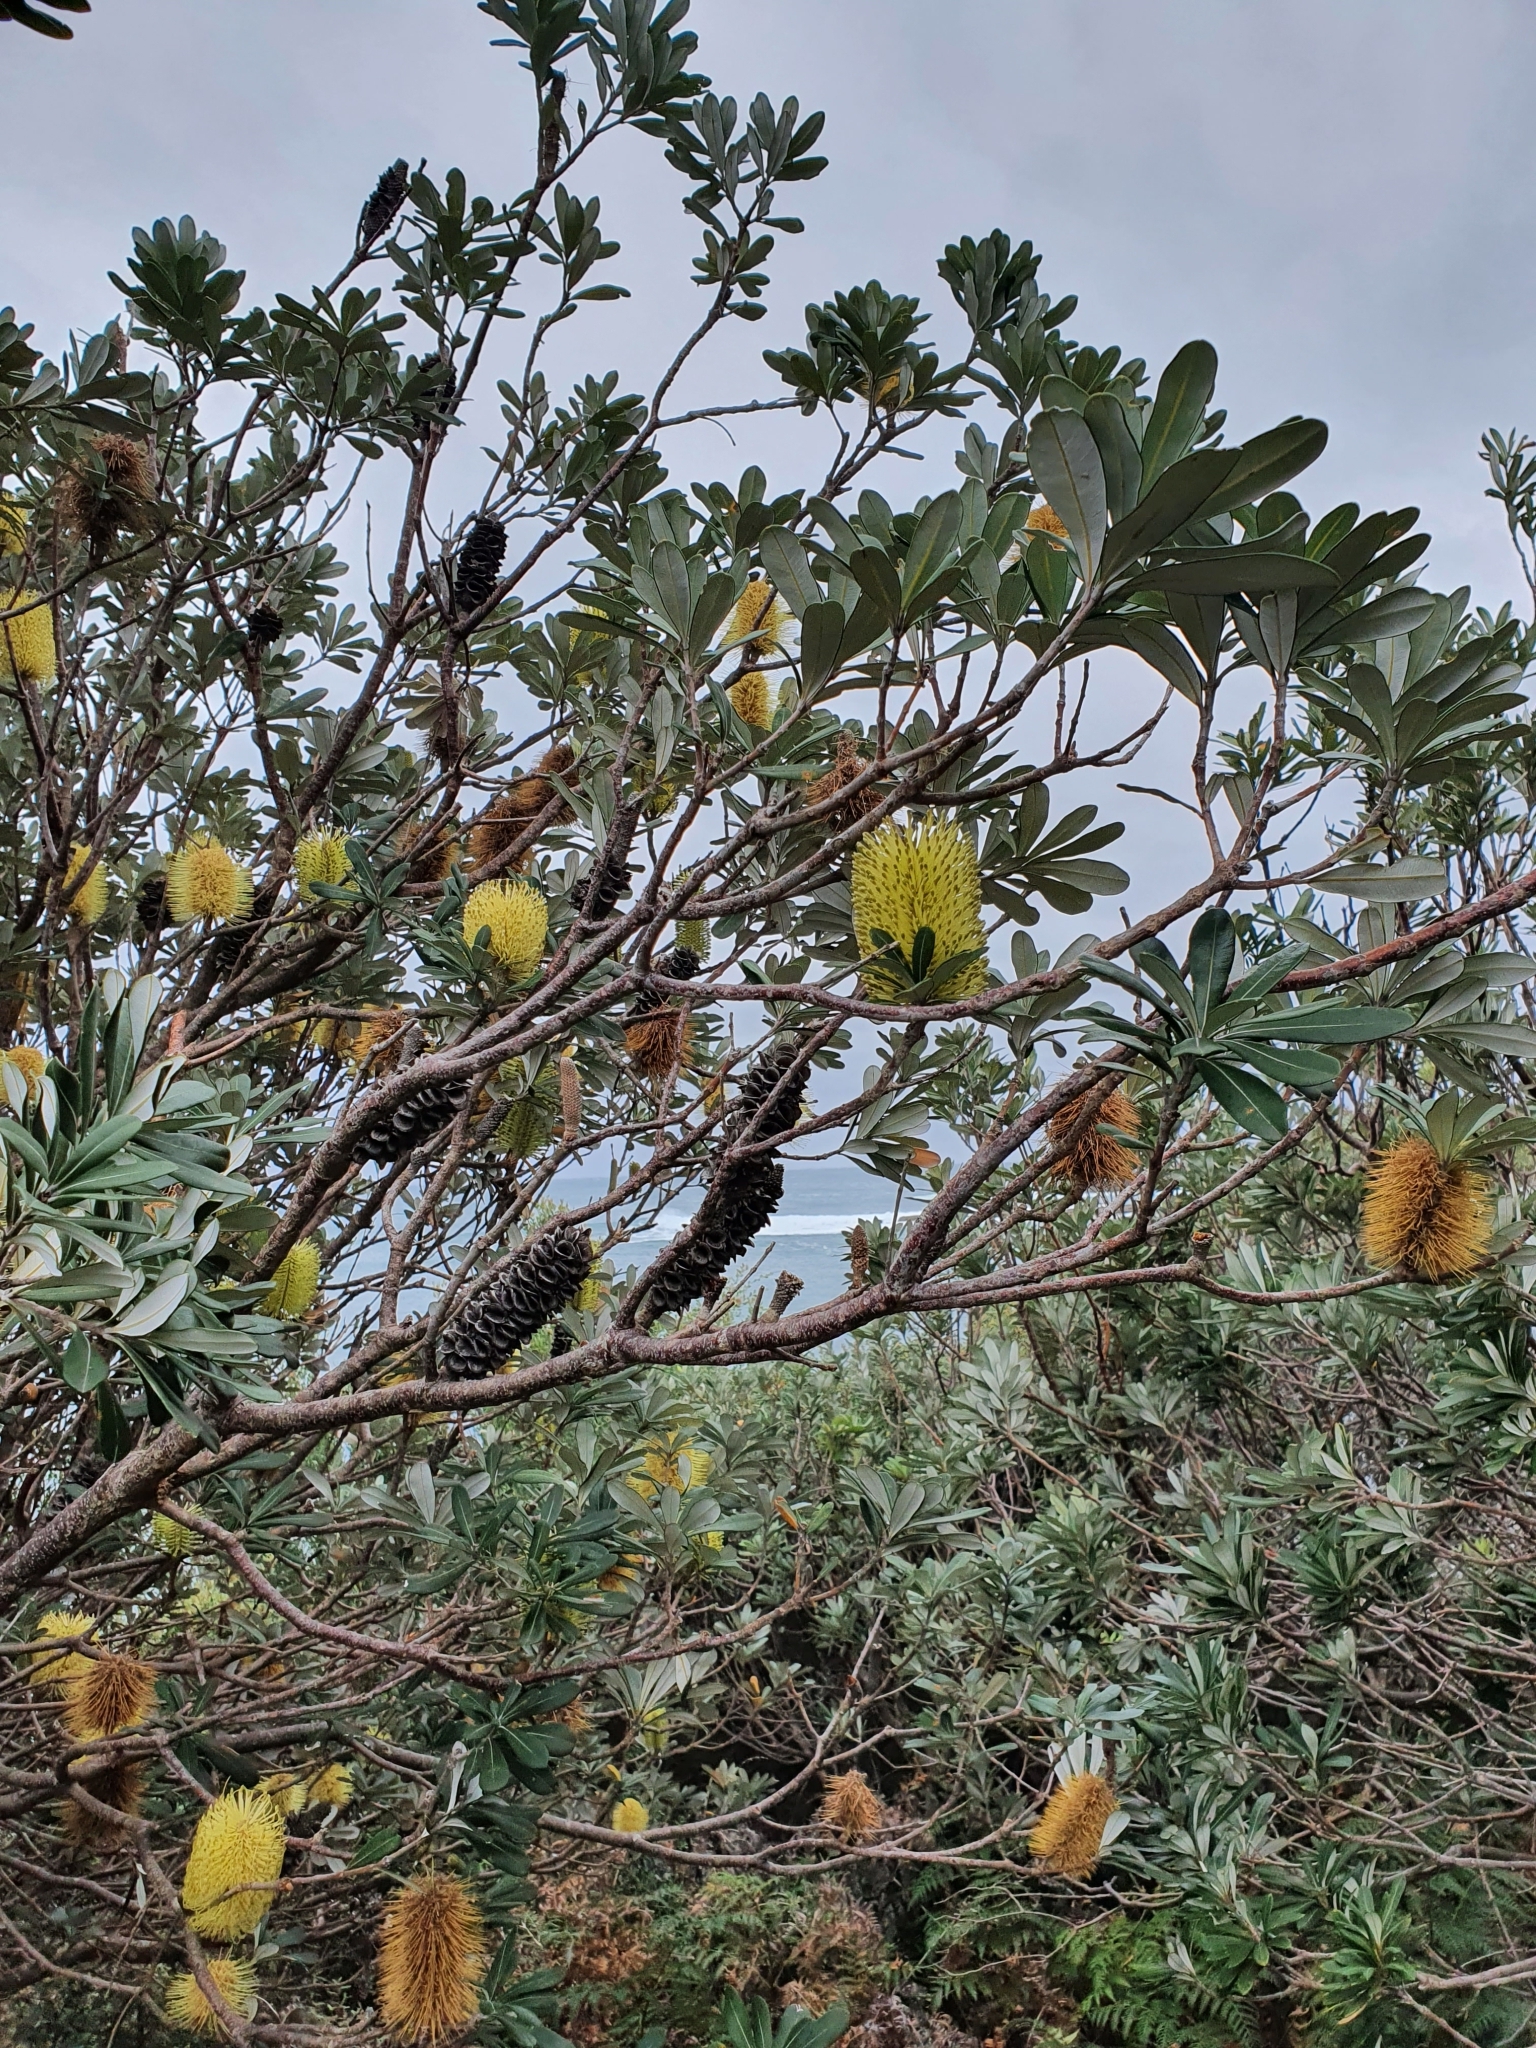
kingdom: Plantae
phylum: Tracheophyta
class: Magnoliopsida
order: Proteales
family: Proteaceae
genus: Banksia
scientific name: Banksia integrifolia
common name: White-honeysuckle
